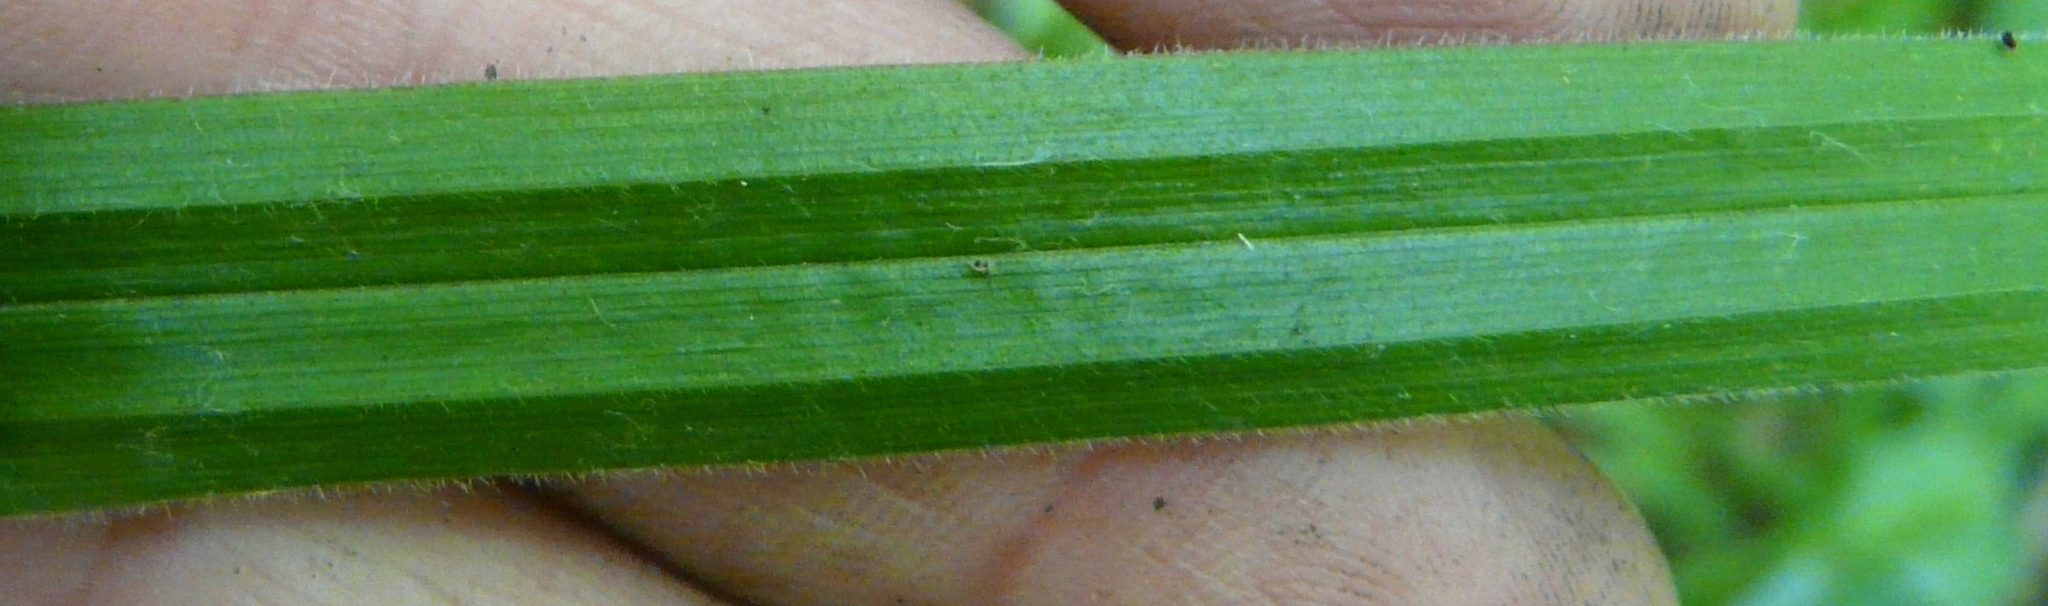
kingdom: Plantae
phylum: Tracheophyta
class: Liliopsida
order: Poales
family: Cyperaceae
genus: Carex
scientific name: Carex pilosa
